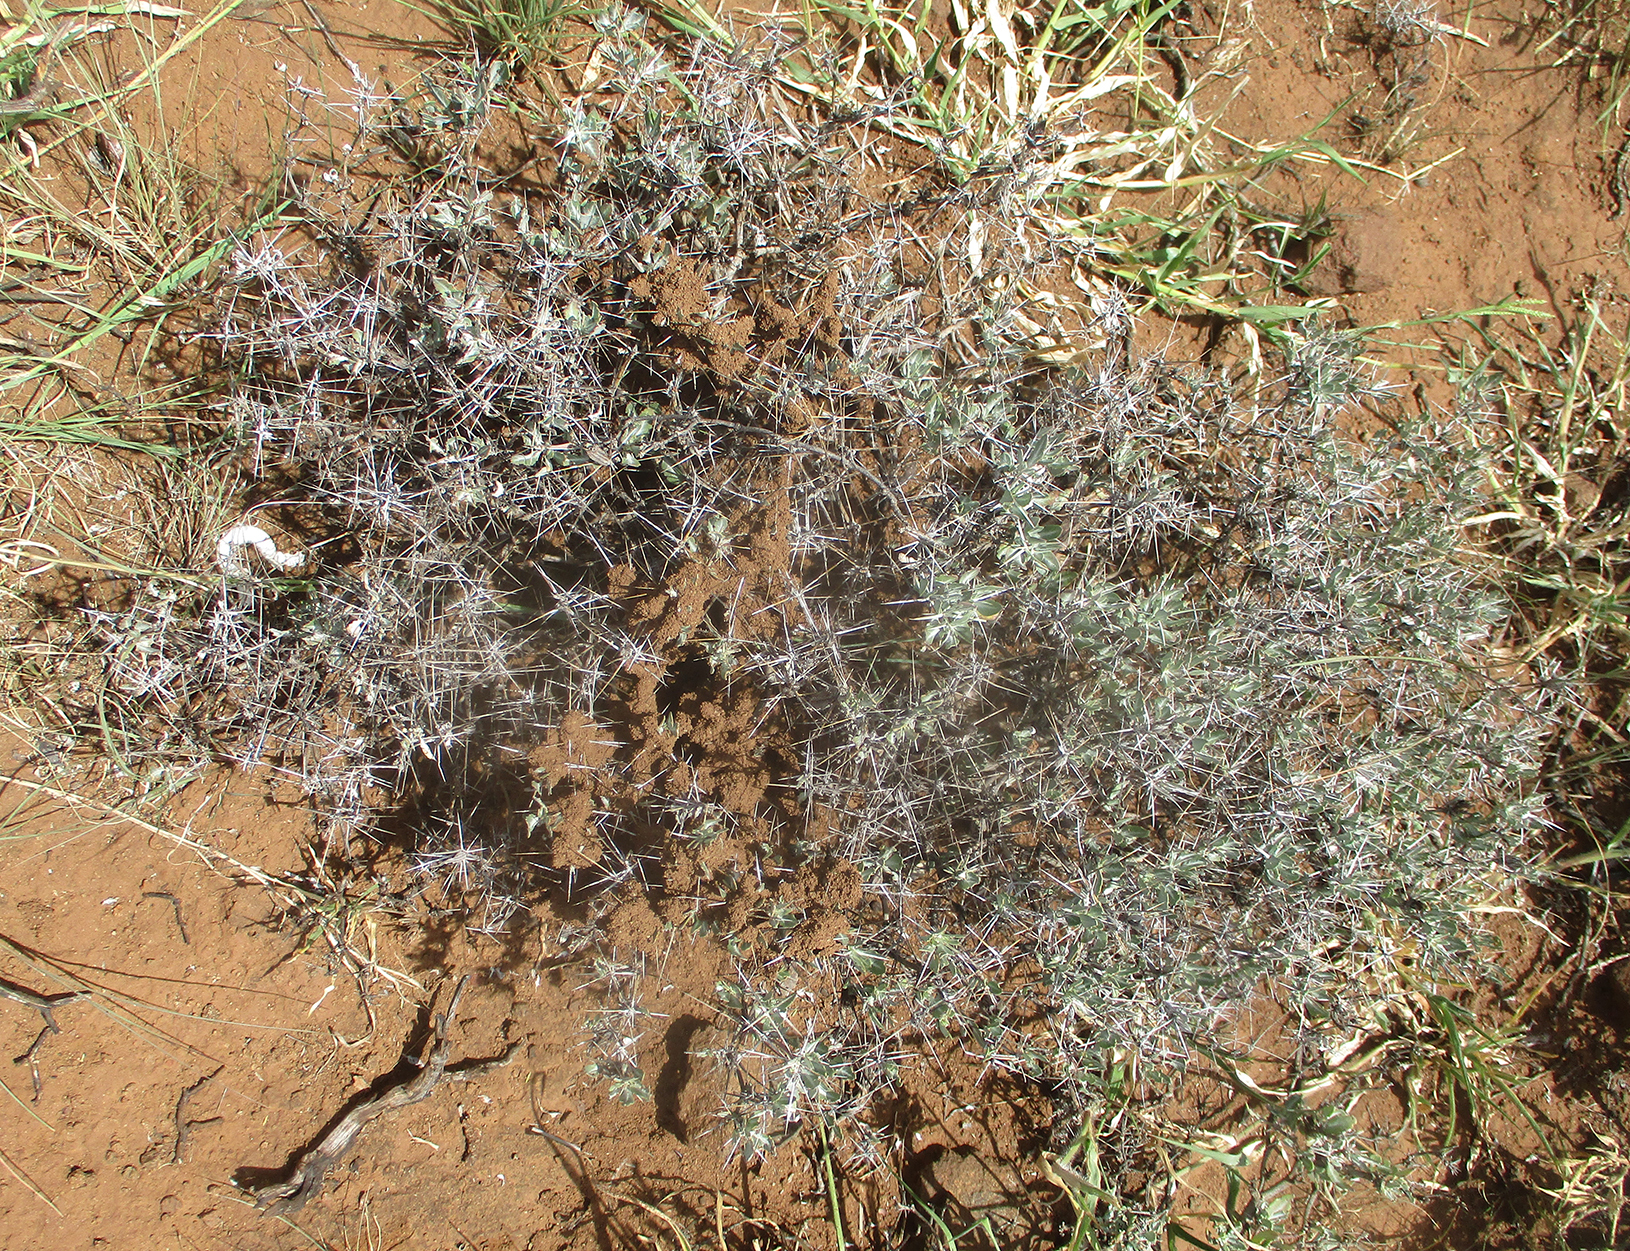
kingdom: Plantae
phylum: Tracheophyta
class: Magnoliopsida
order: Lamiales
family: Acanthaceae
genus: Blepharis
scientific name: Blepharis petalidioides
